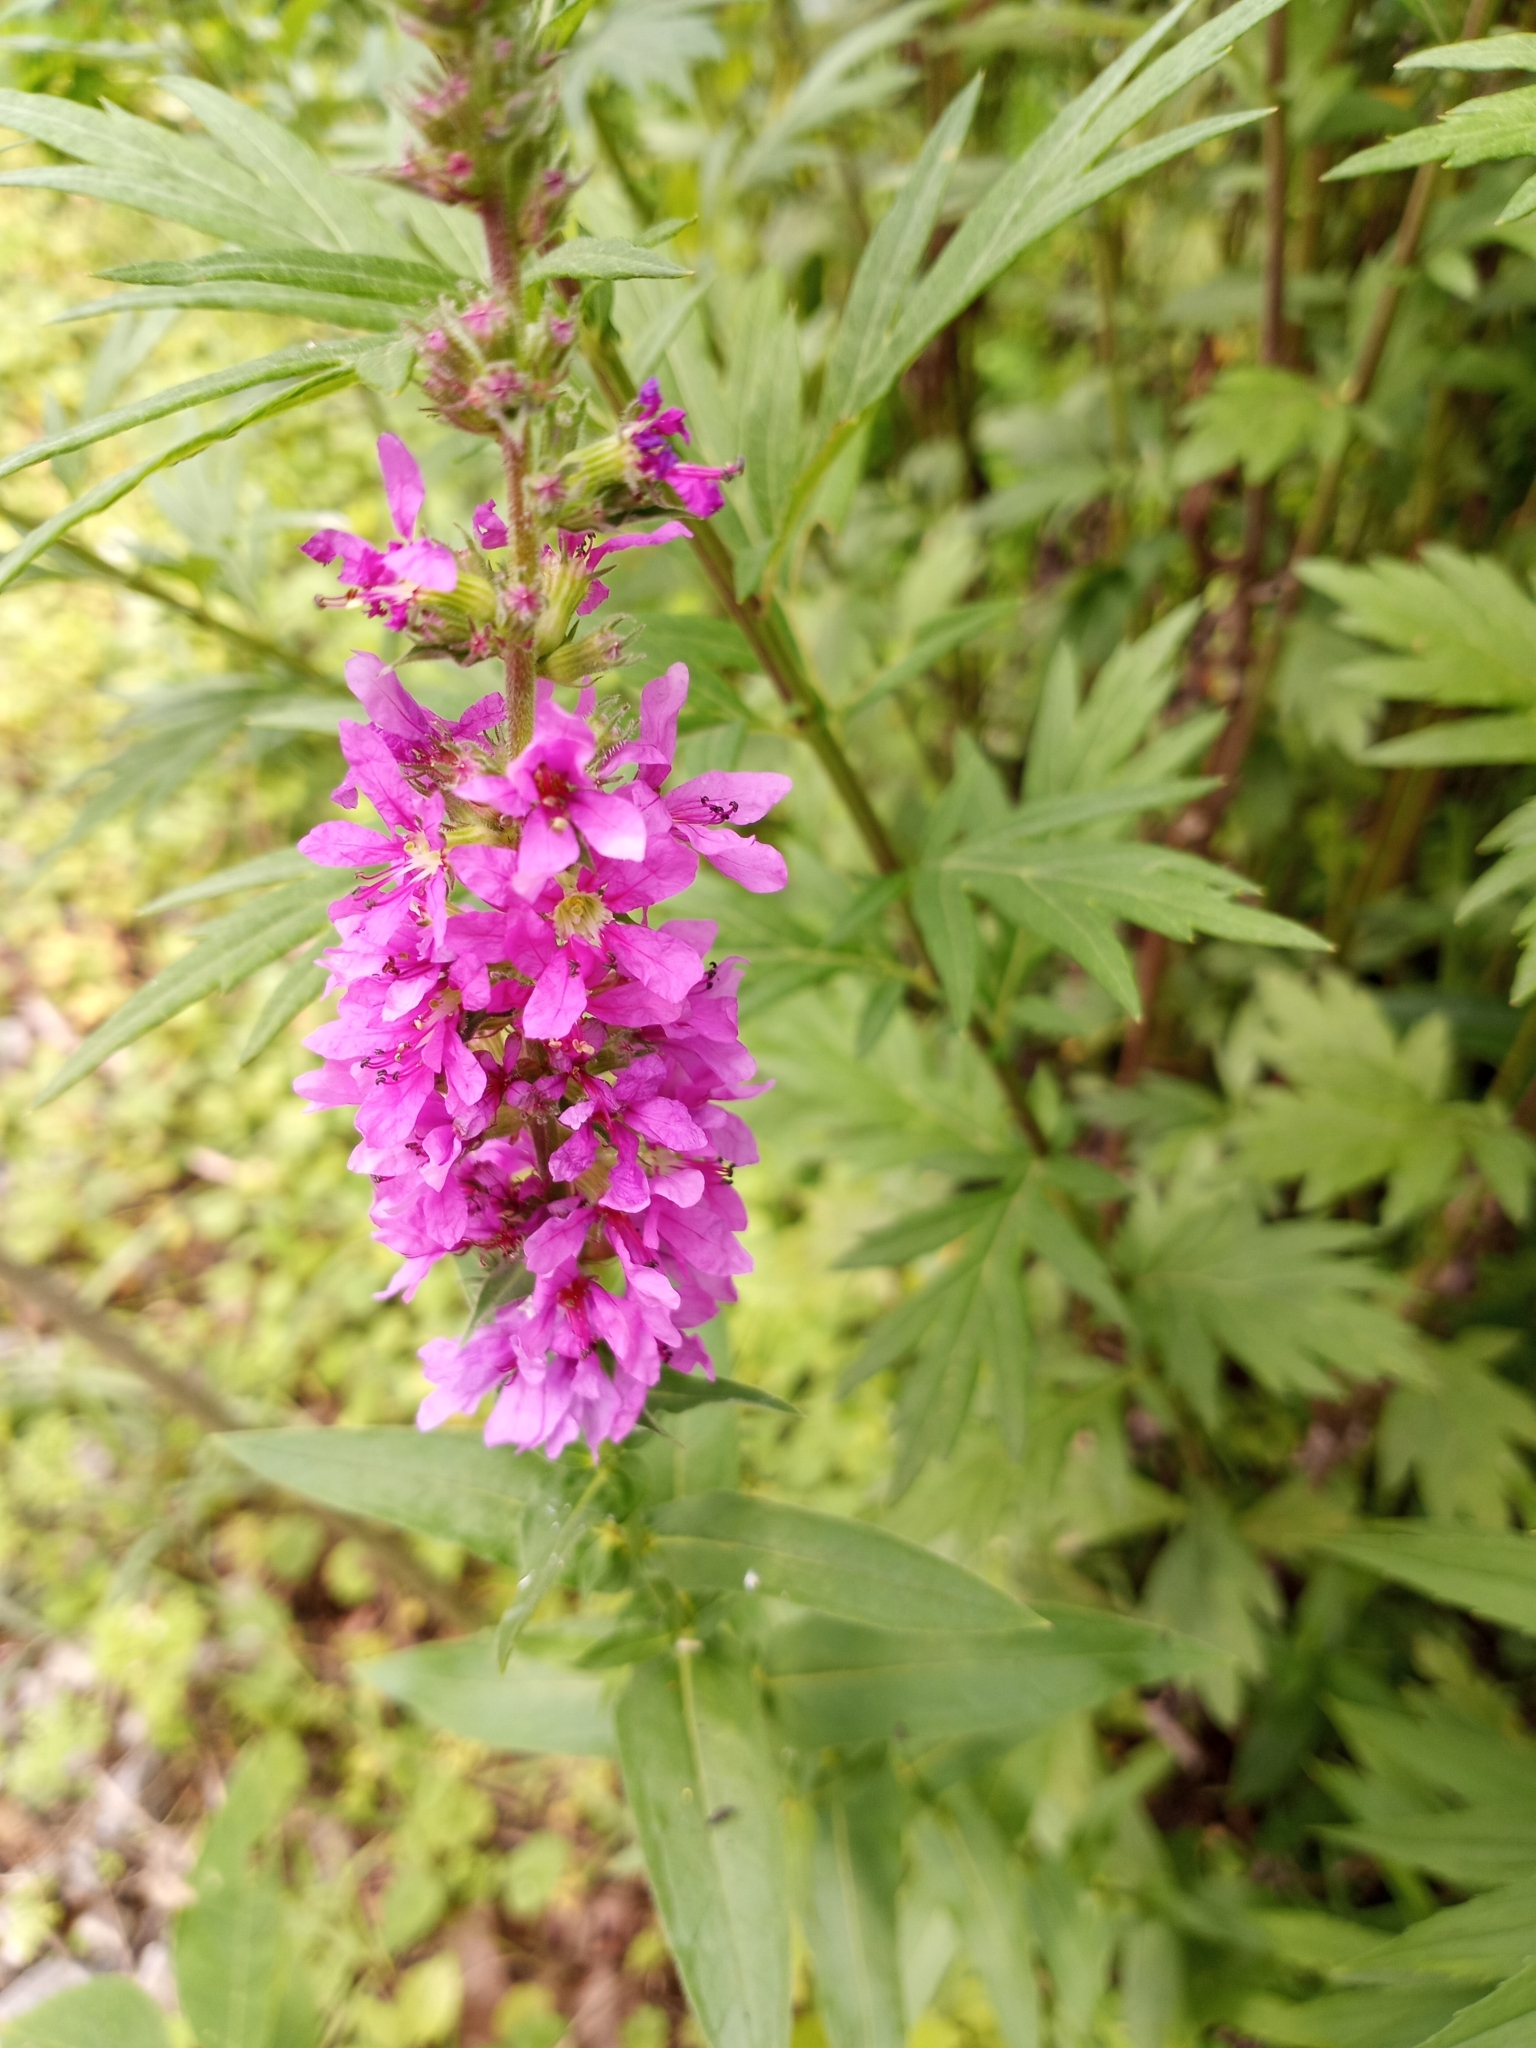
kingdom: Plantae
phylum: Tracheophyta
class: Magnoliopsida
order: Myrtales
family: Lythraceae
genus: Lythrum
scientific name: Lythrum salicaria
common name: Purple loosestrife
